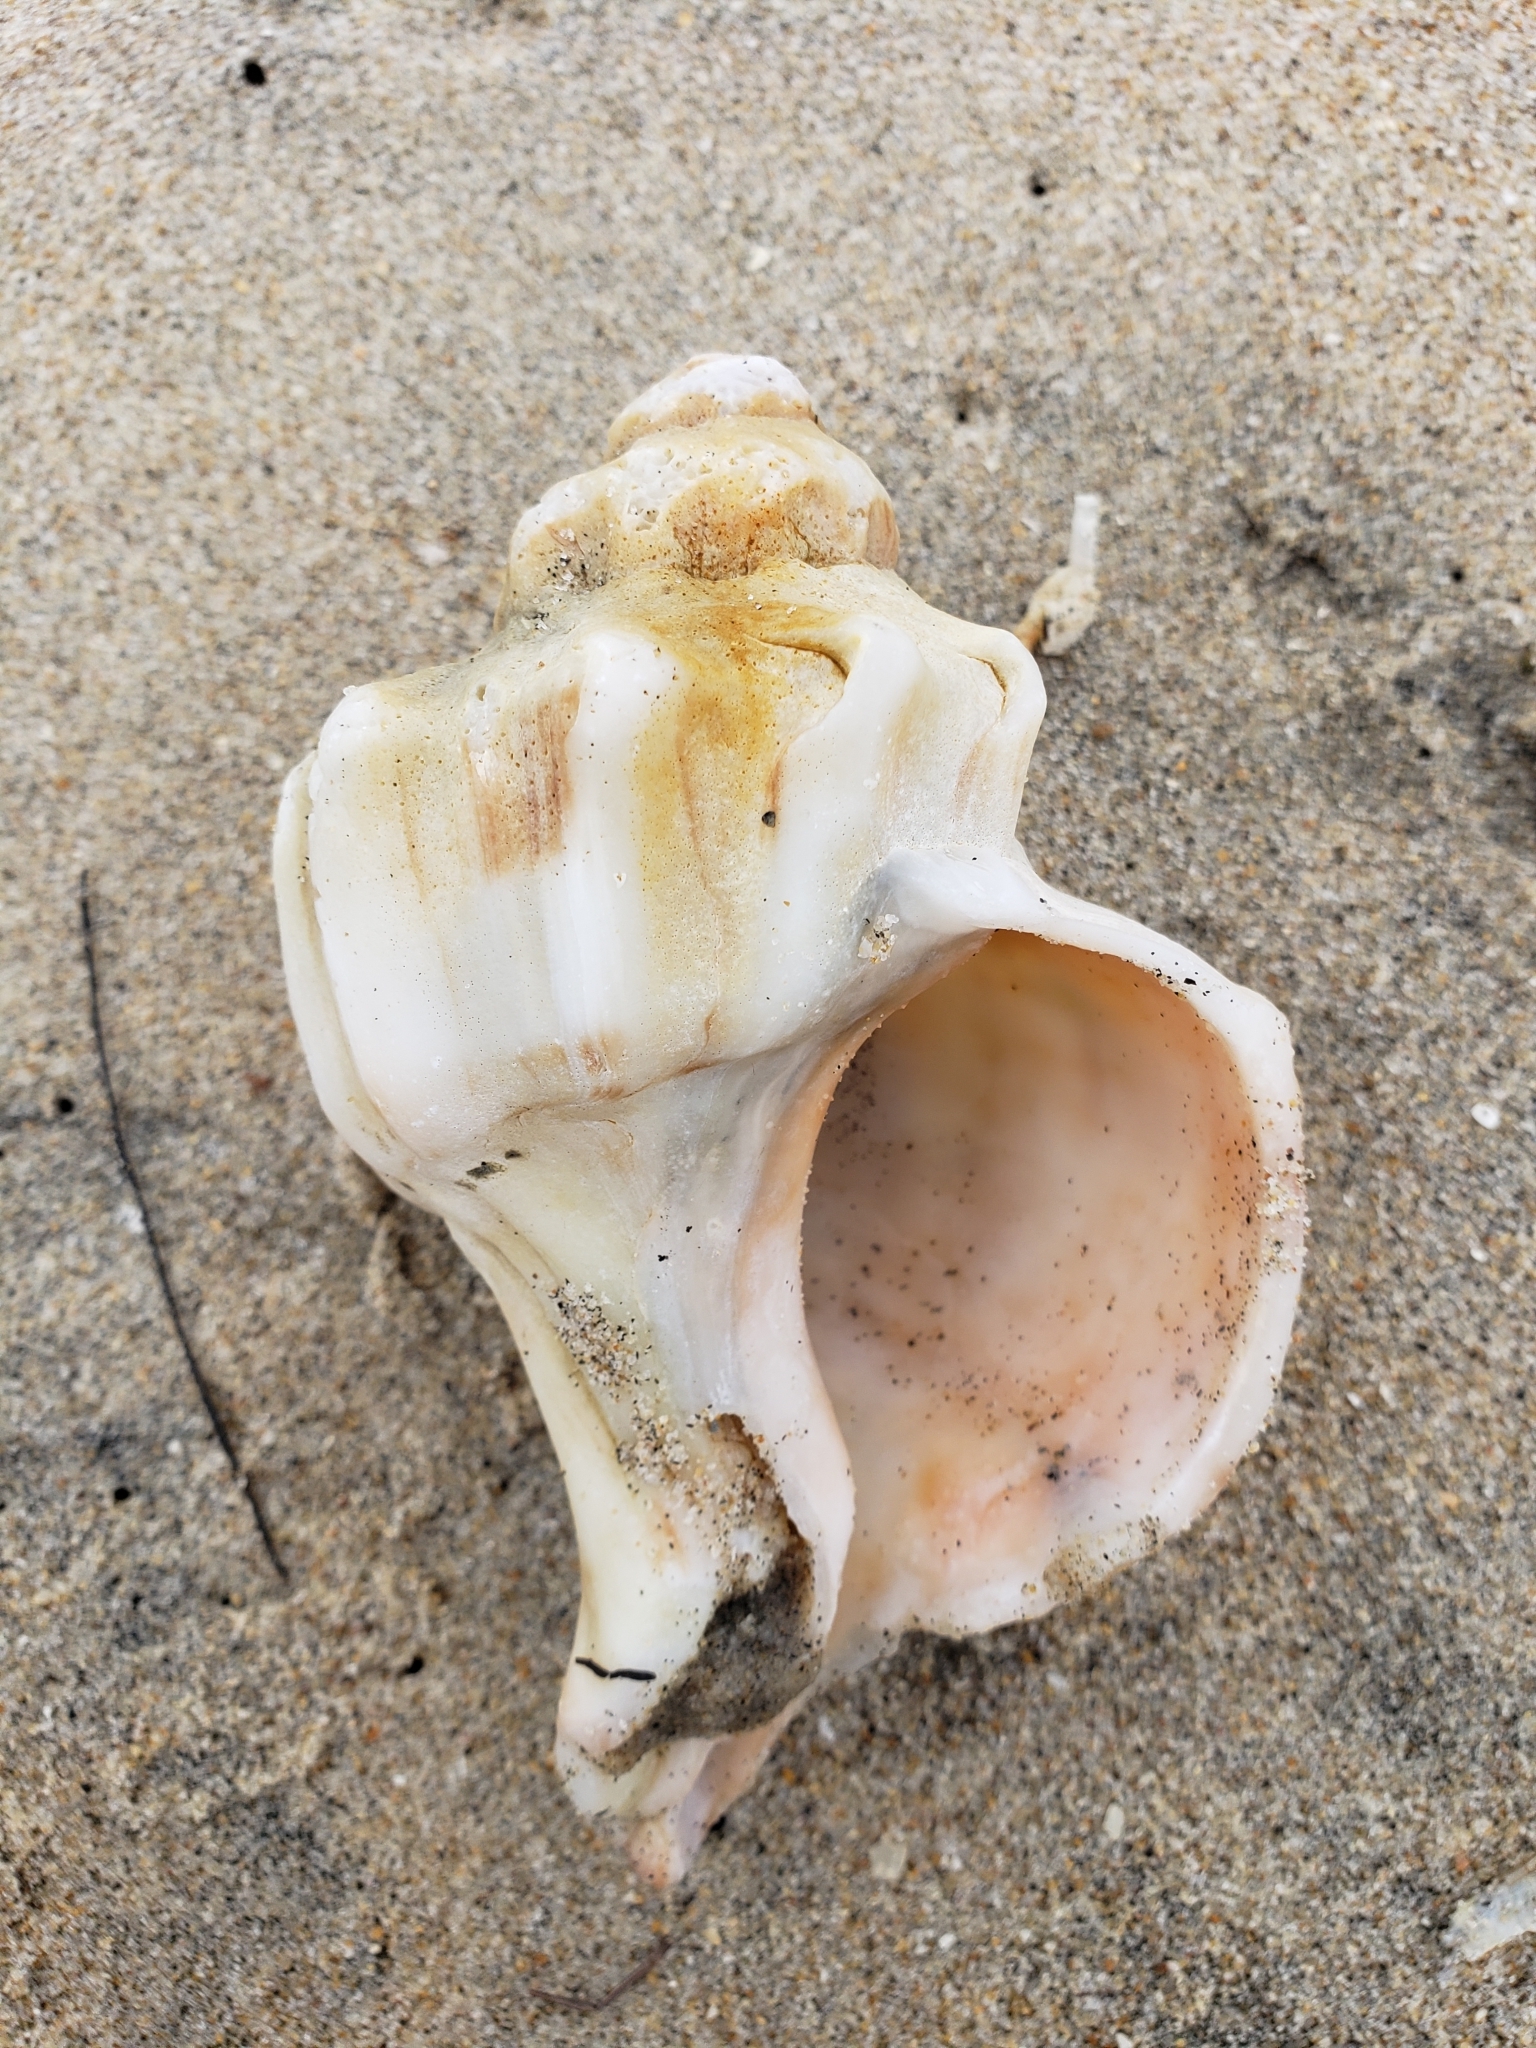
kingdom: Animalia
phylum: Mollusca
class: Gastropoda
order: Neogastropoda
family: Muricidae
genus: Forreria
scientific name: Forreria belcheri
